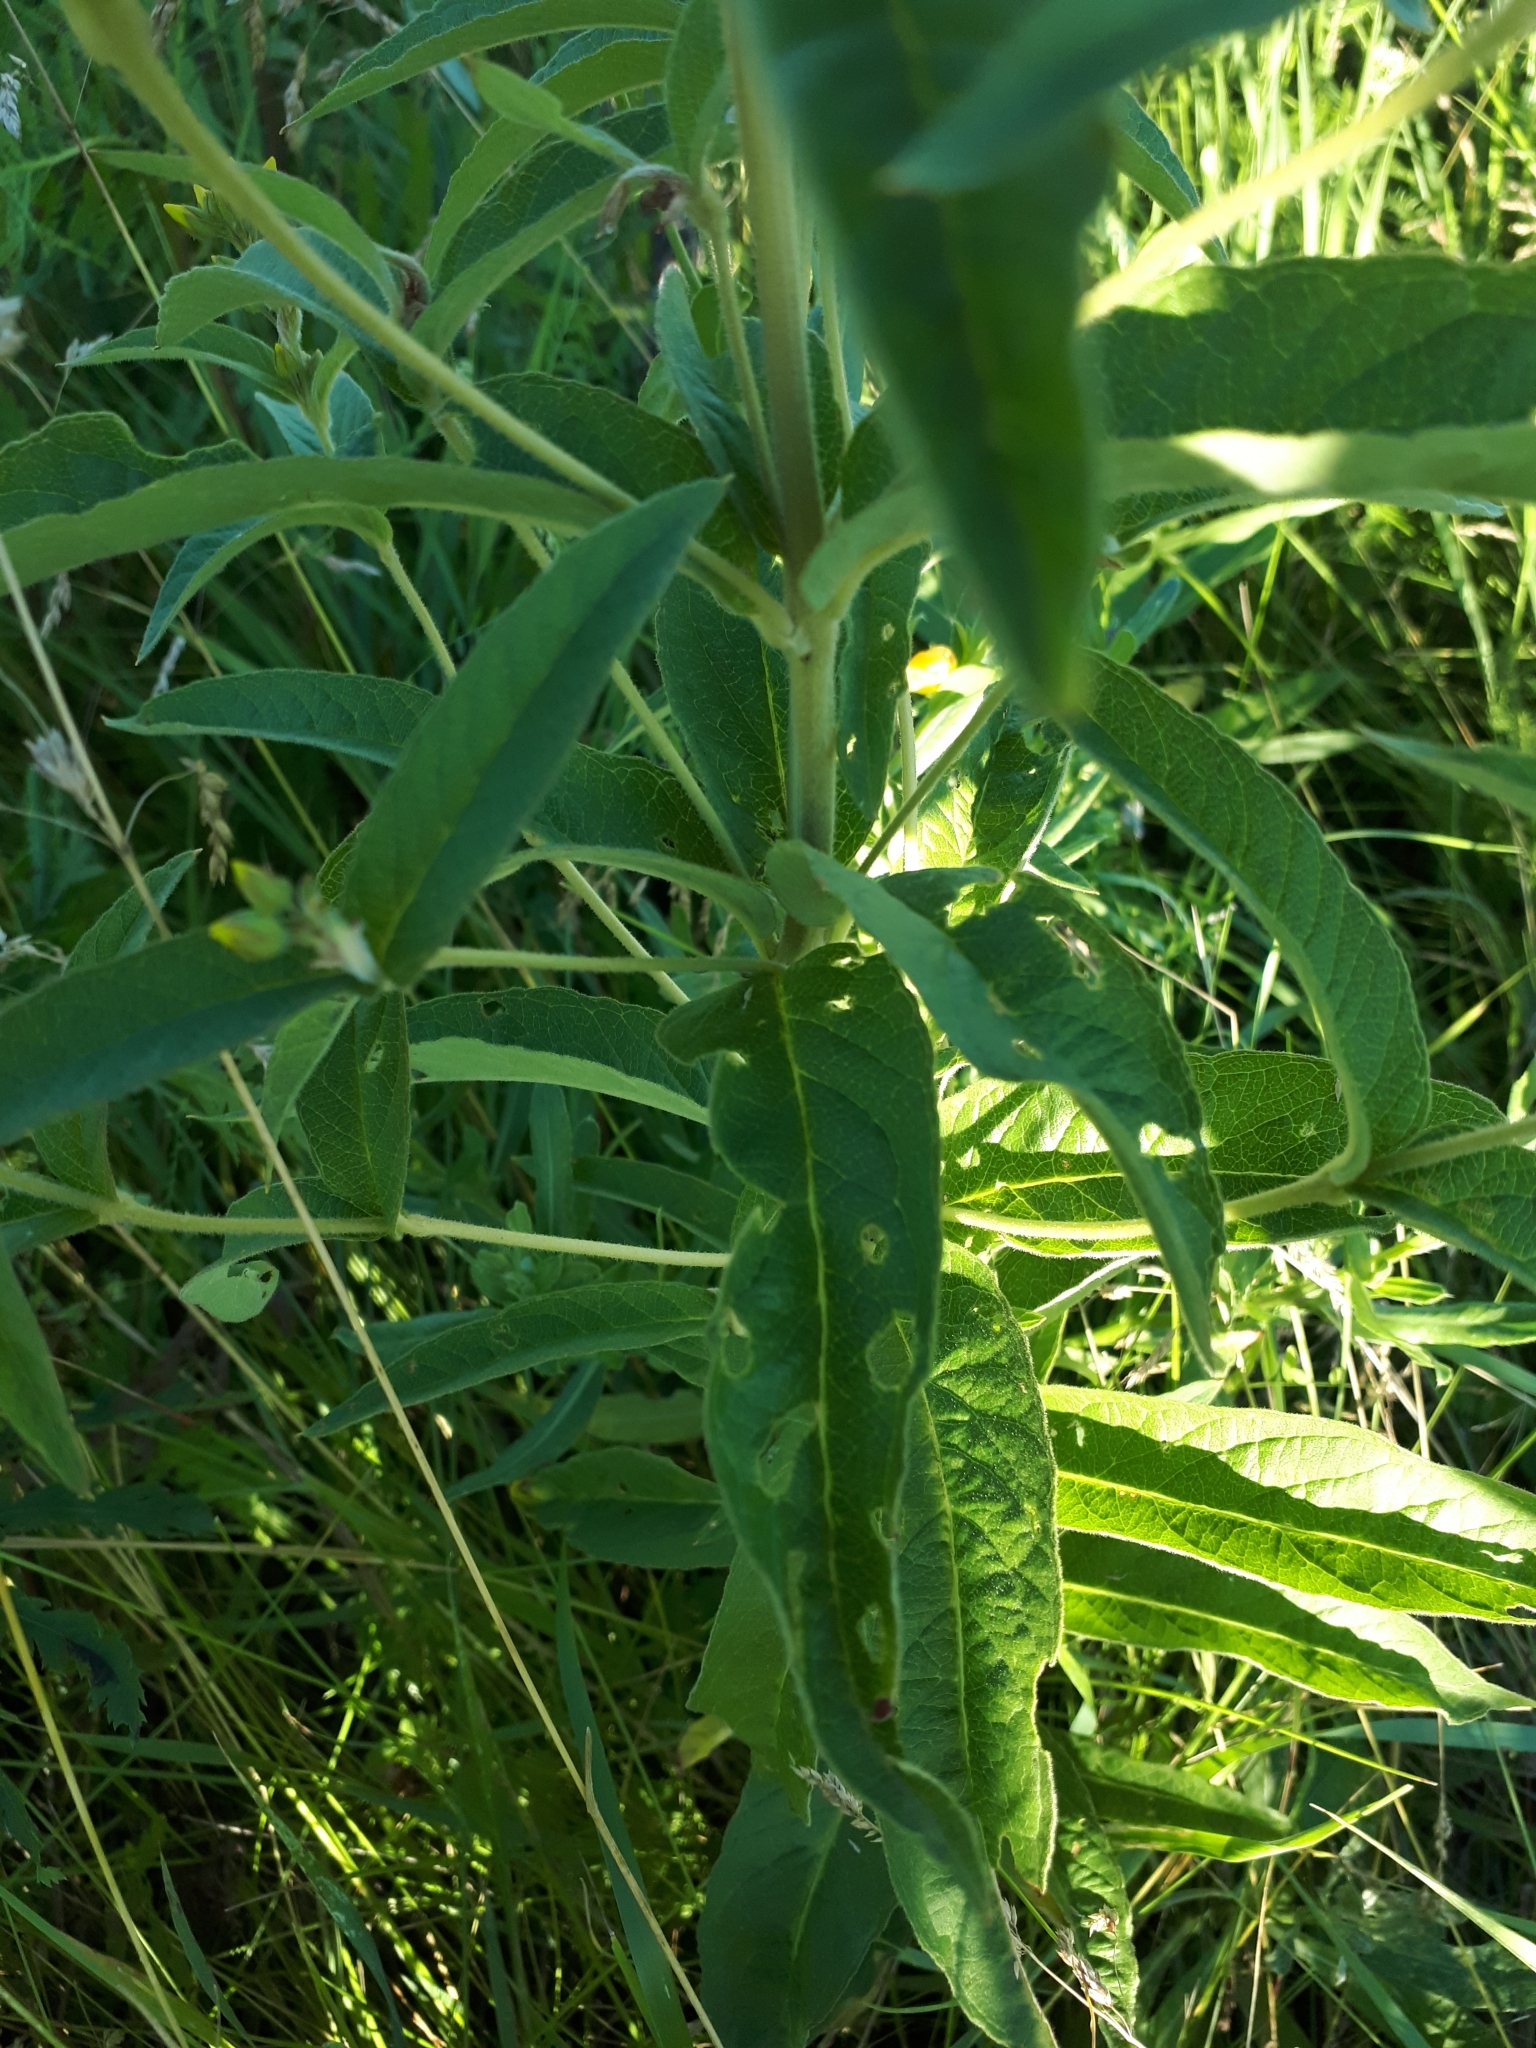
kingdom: Plantae
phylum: Tracheophyta
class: Magnoliopsida
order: Ericales
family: Primulaceae
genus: Lysimachia
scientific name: Lysimachia vulgaris
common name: Yellow loosestrife
